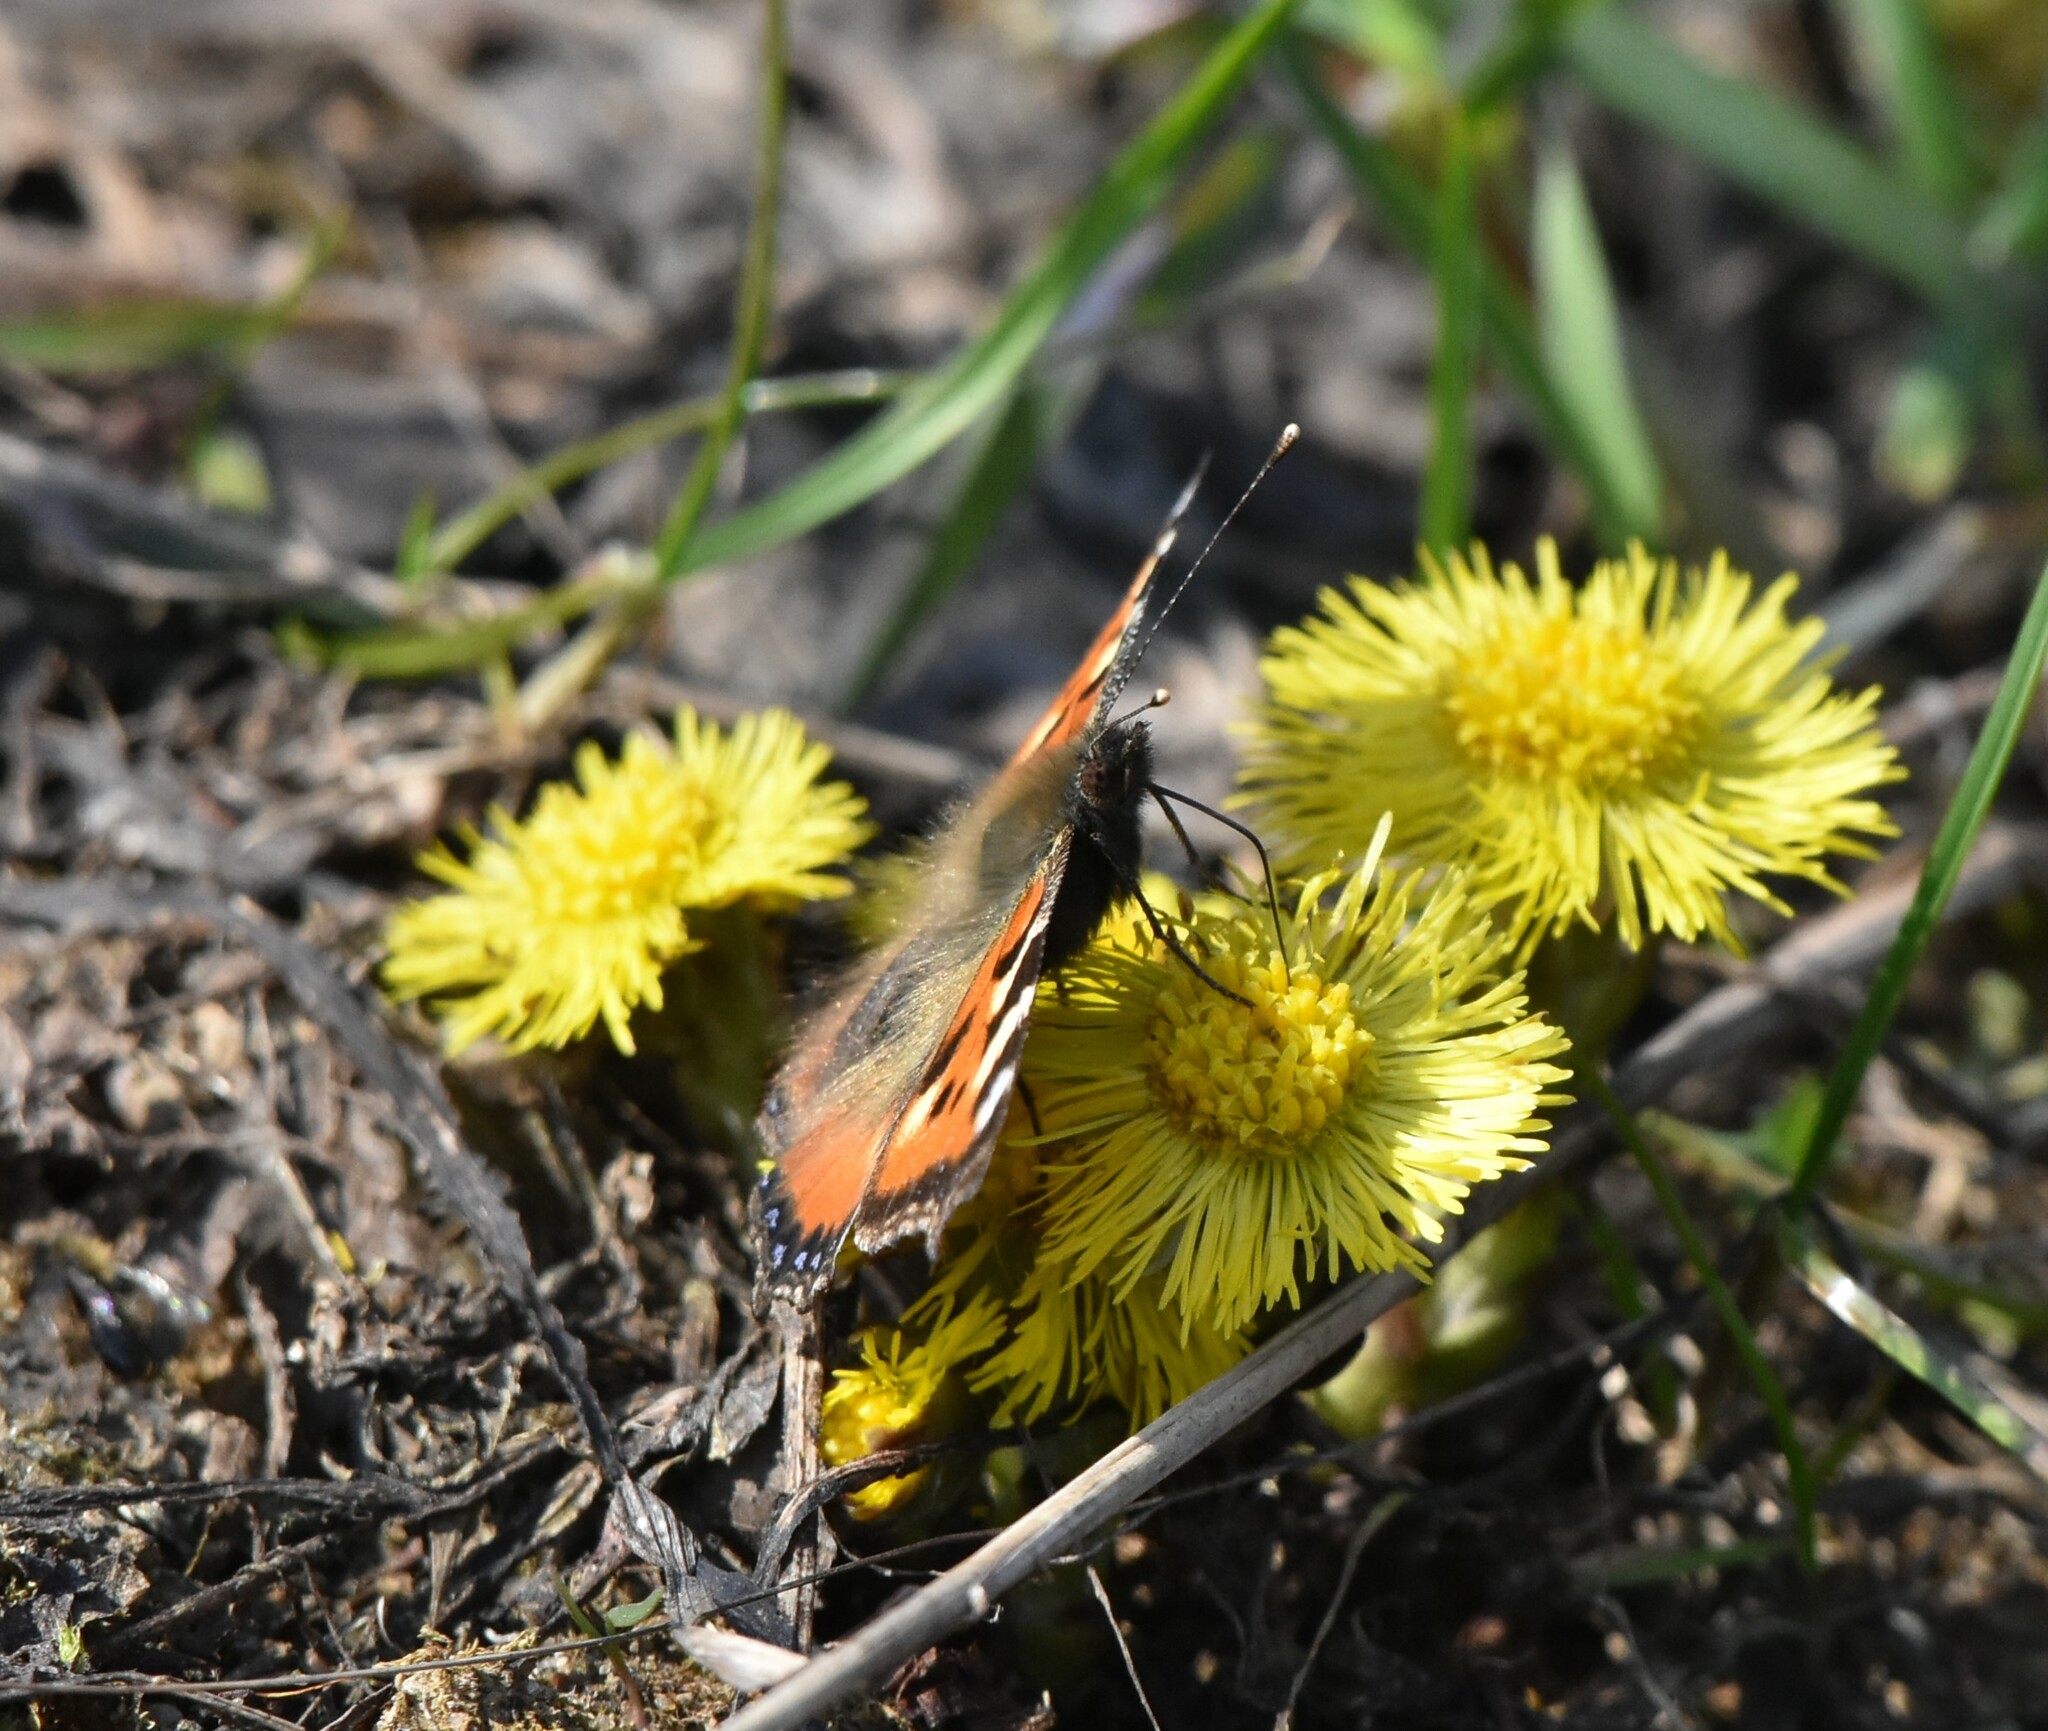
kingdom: Animalia
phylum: Arthropoda
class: Insecta
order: Lepidoptera
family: Nymphalidae
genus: Aglais
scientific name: Aglais urticae
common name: Small tortoiseshell
